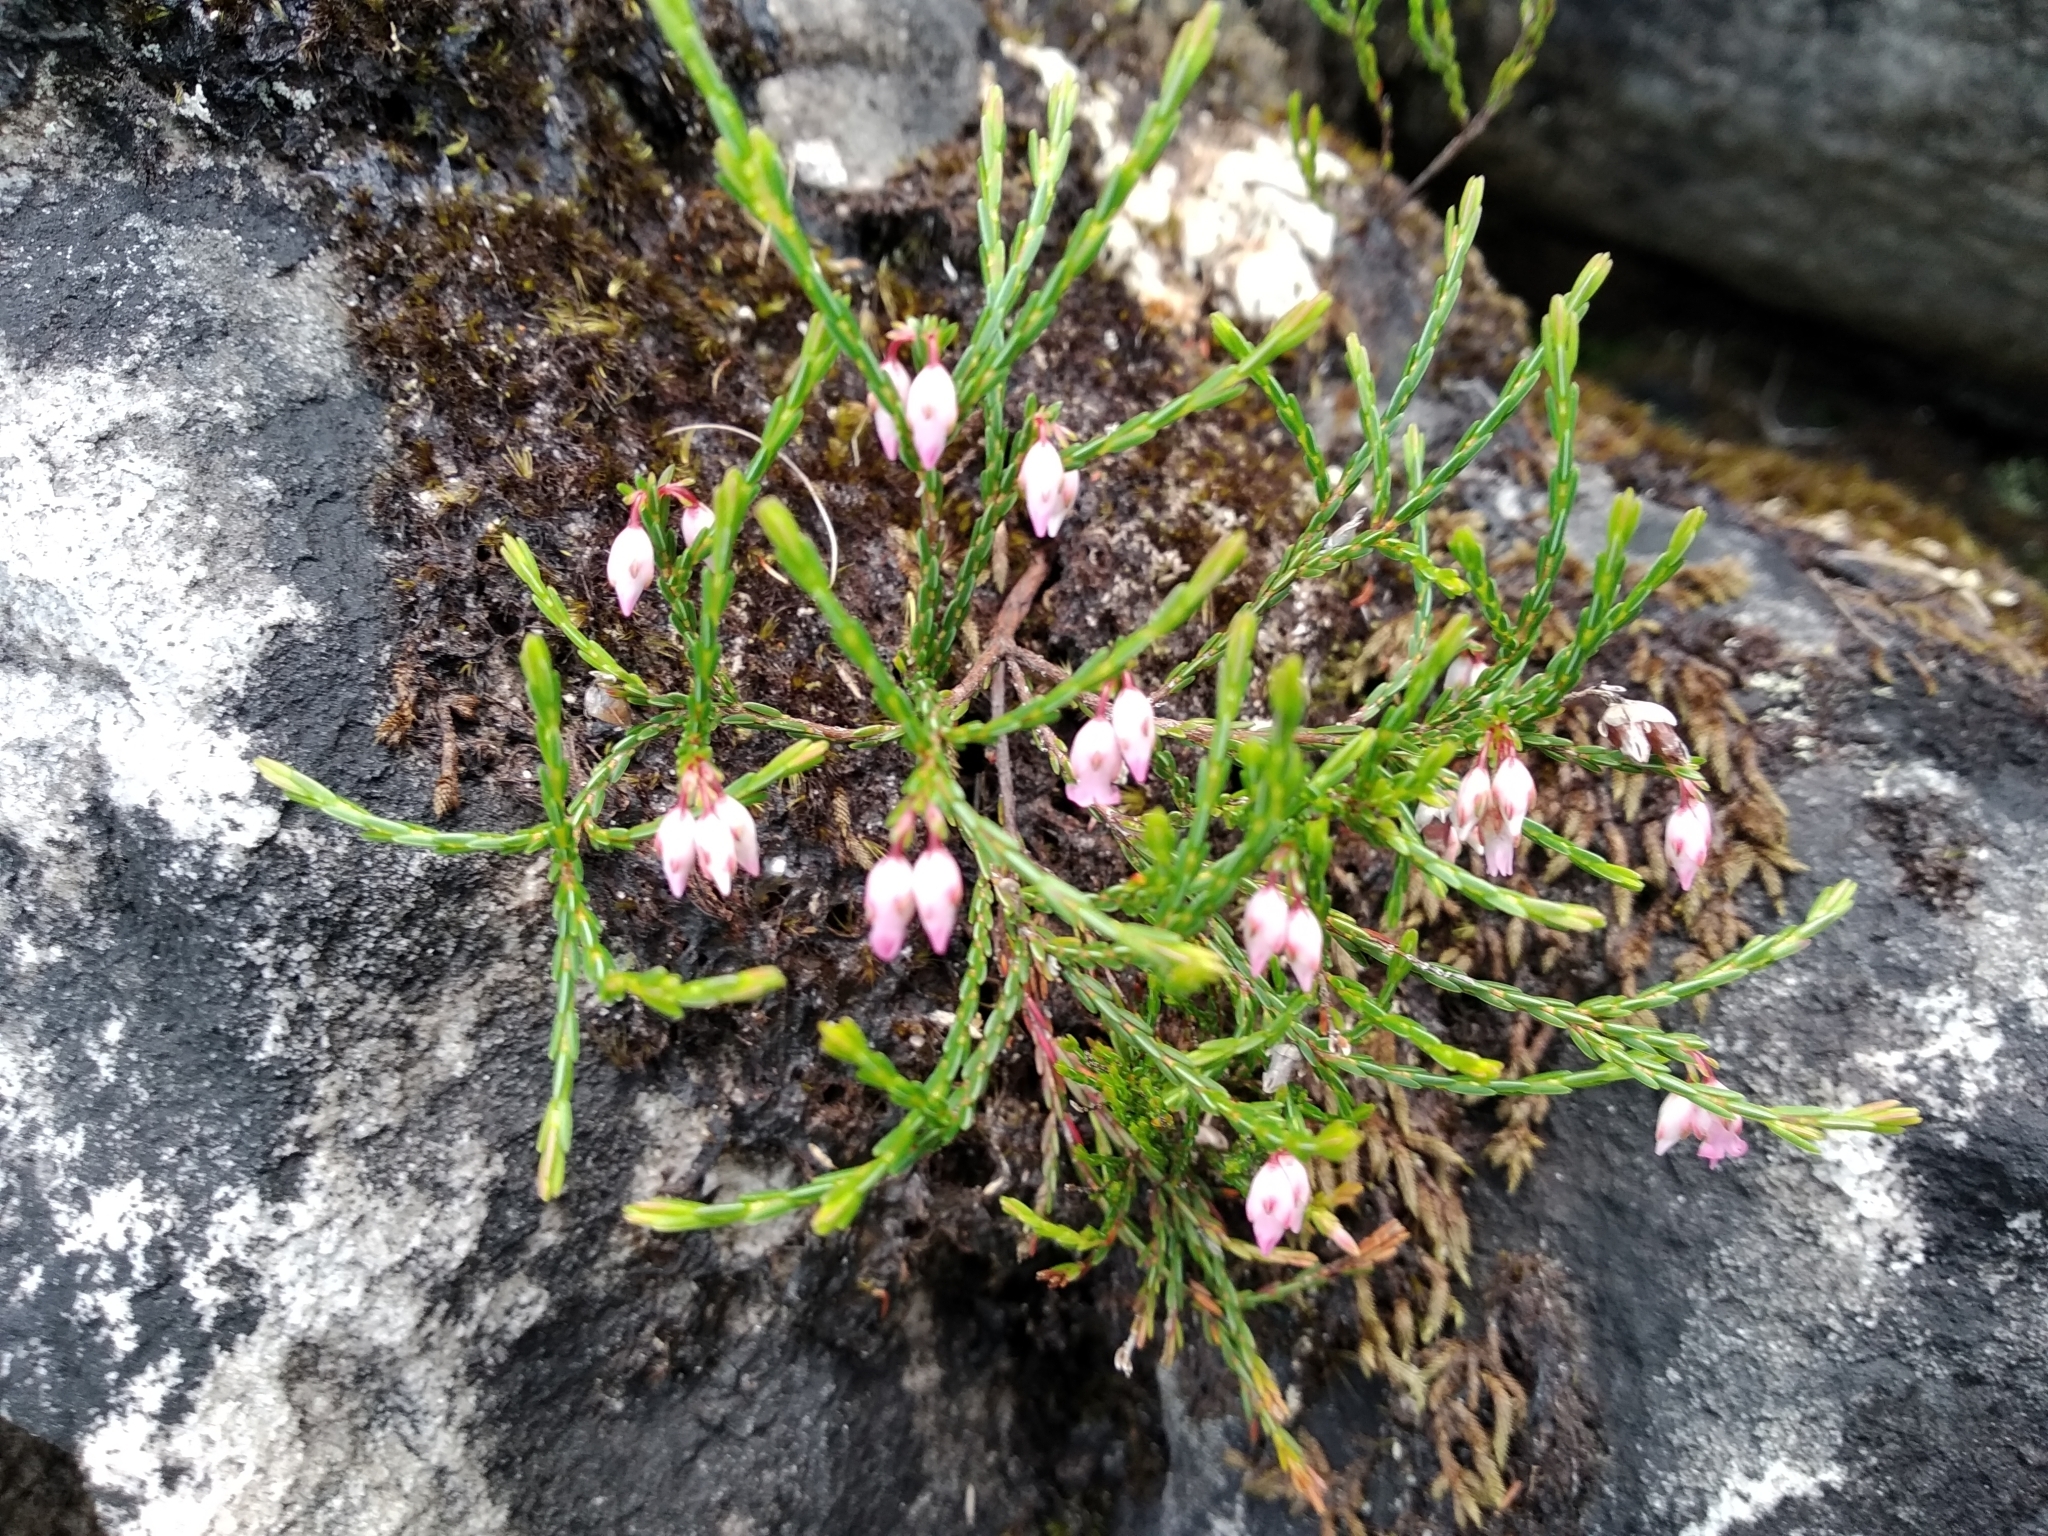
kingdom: Plantae
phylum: Tracheophyta
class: Magnoliopsida
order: Ericales
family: Ericaceae
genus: Erica
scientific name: Erica tenuifolia
